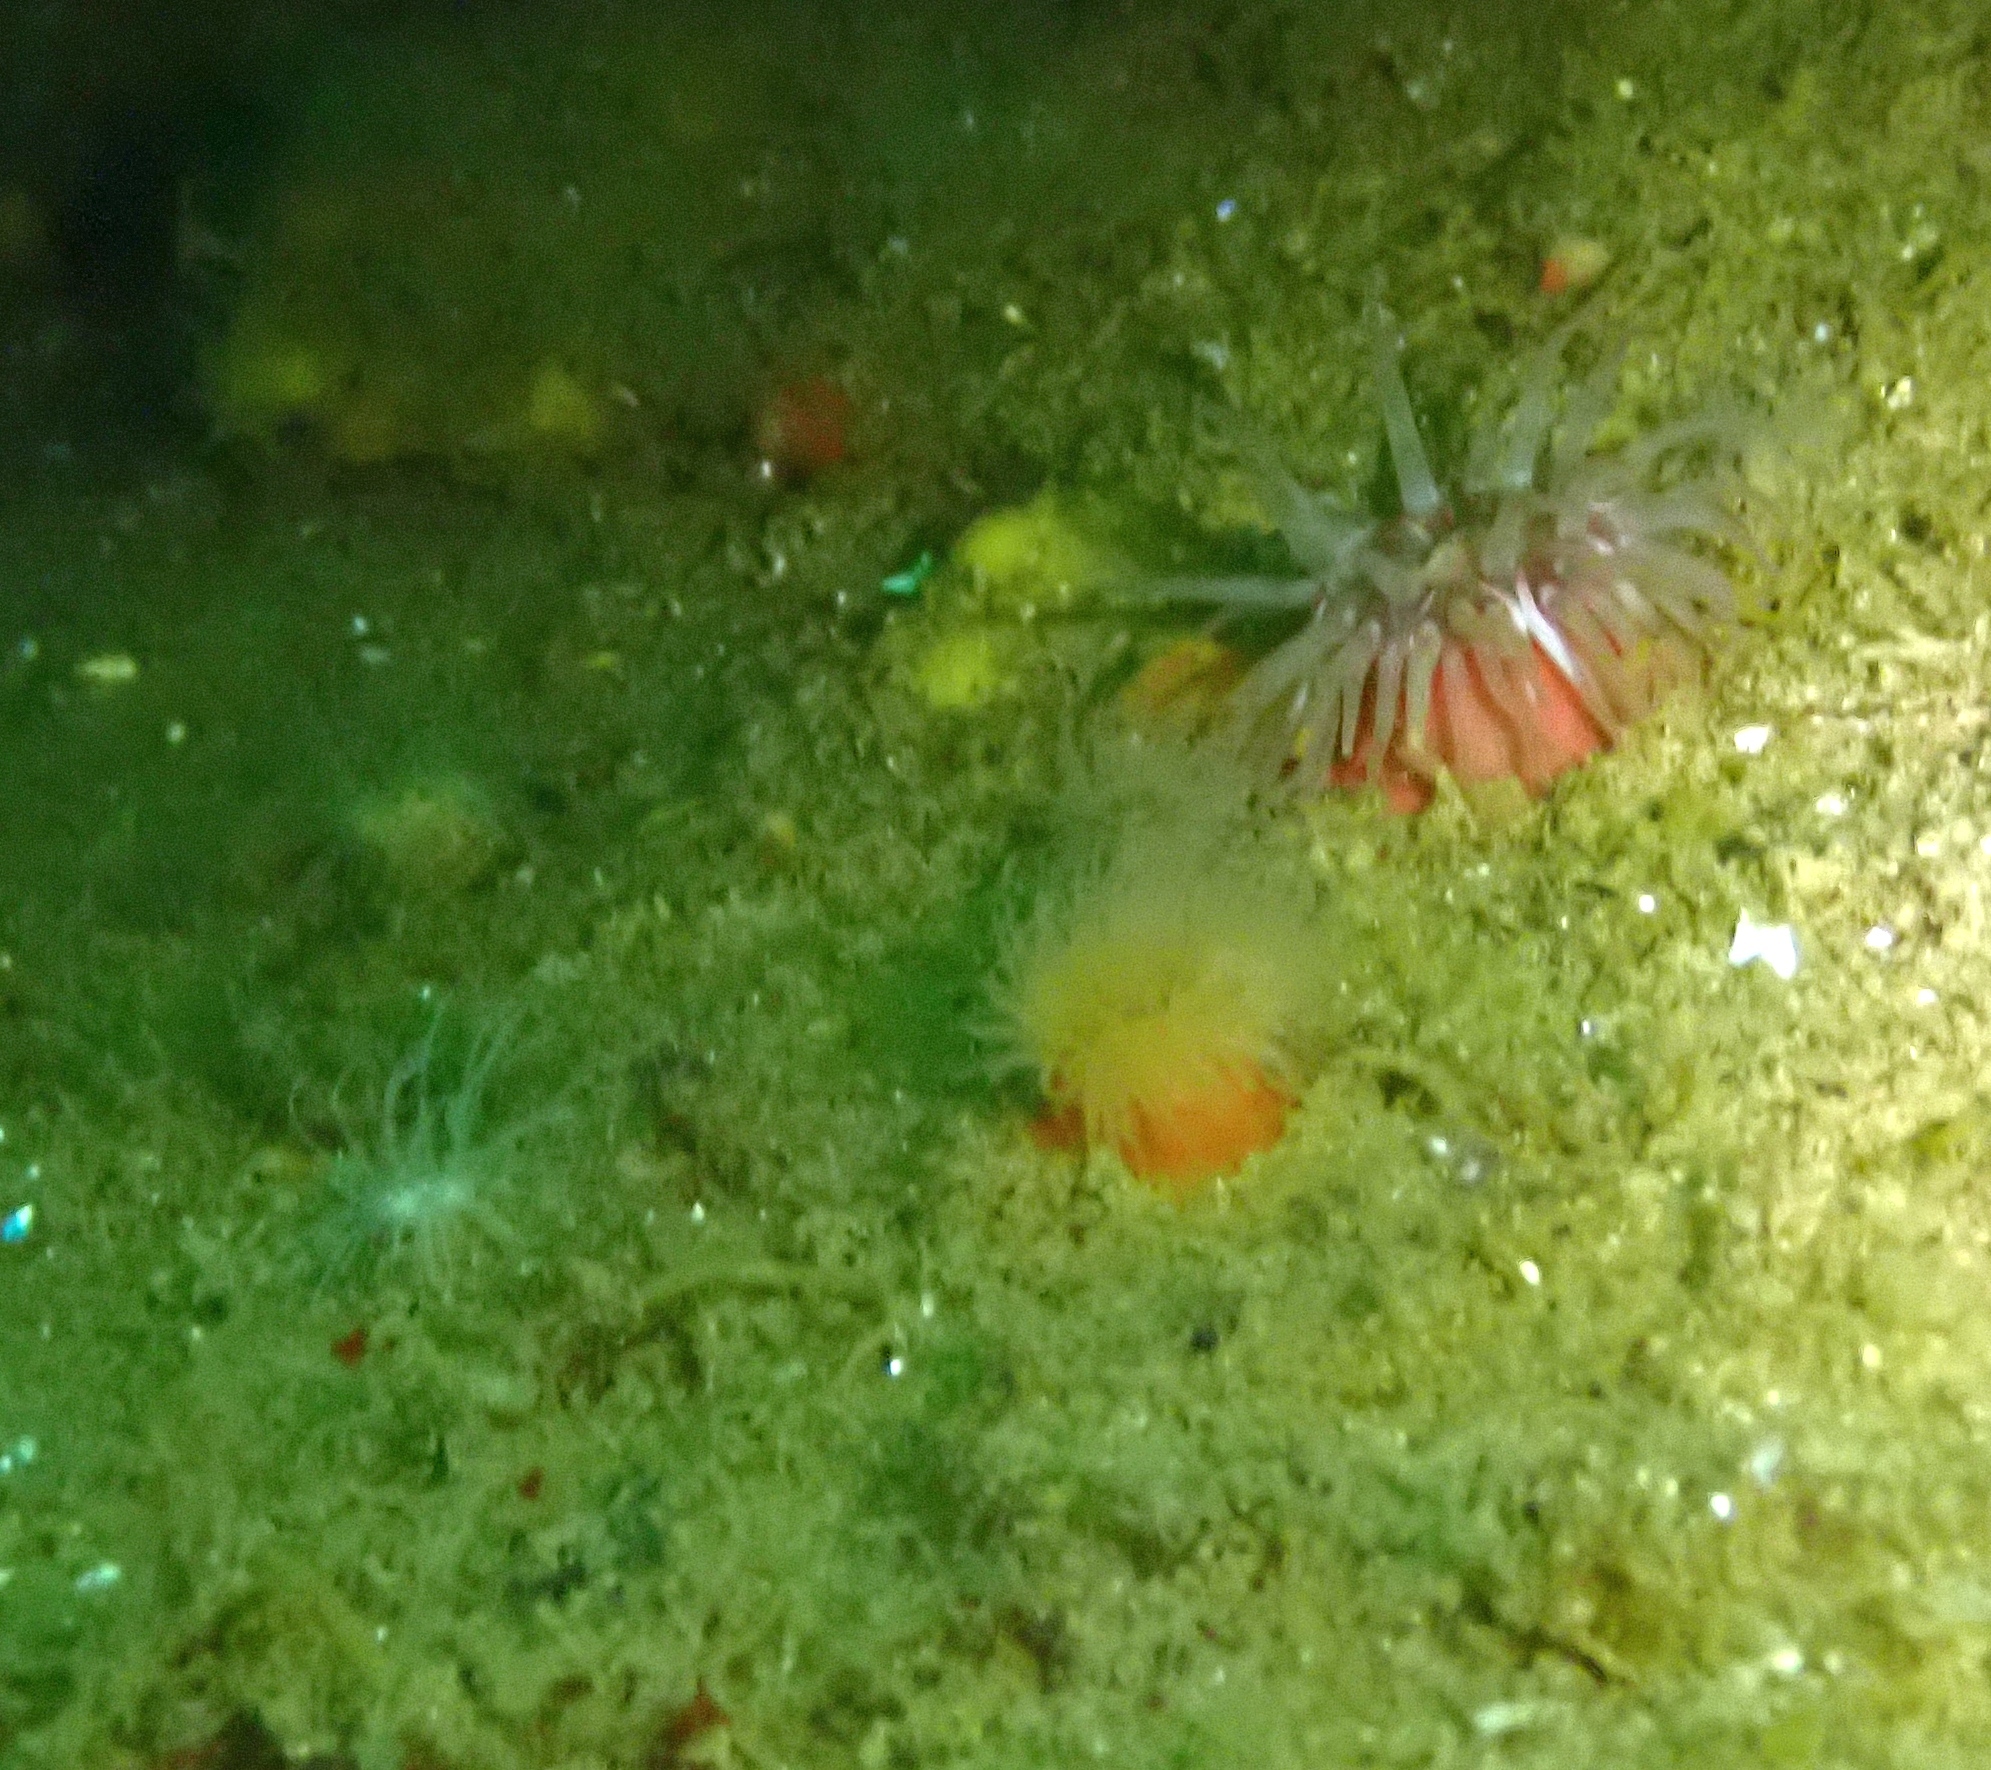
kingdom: Animalia
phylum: Cnidaria
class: Anthozoa
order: Actiniaria
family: Actiniidae
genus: Urticina
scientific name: Urticina felina
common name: Dahlia anemone
